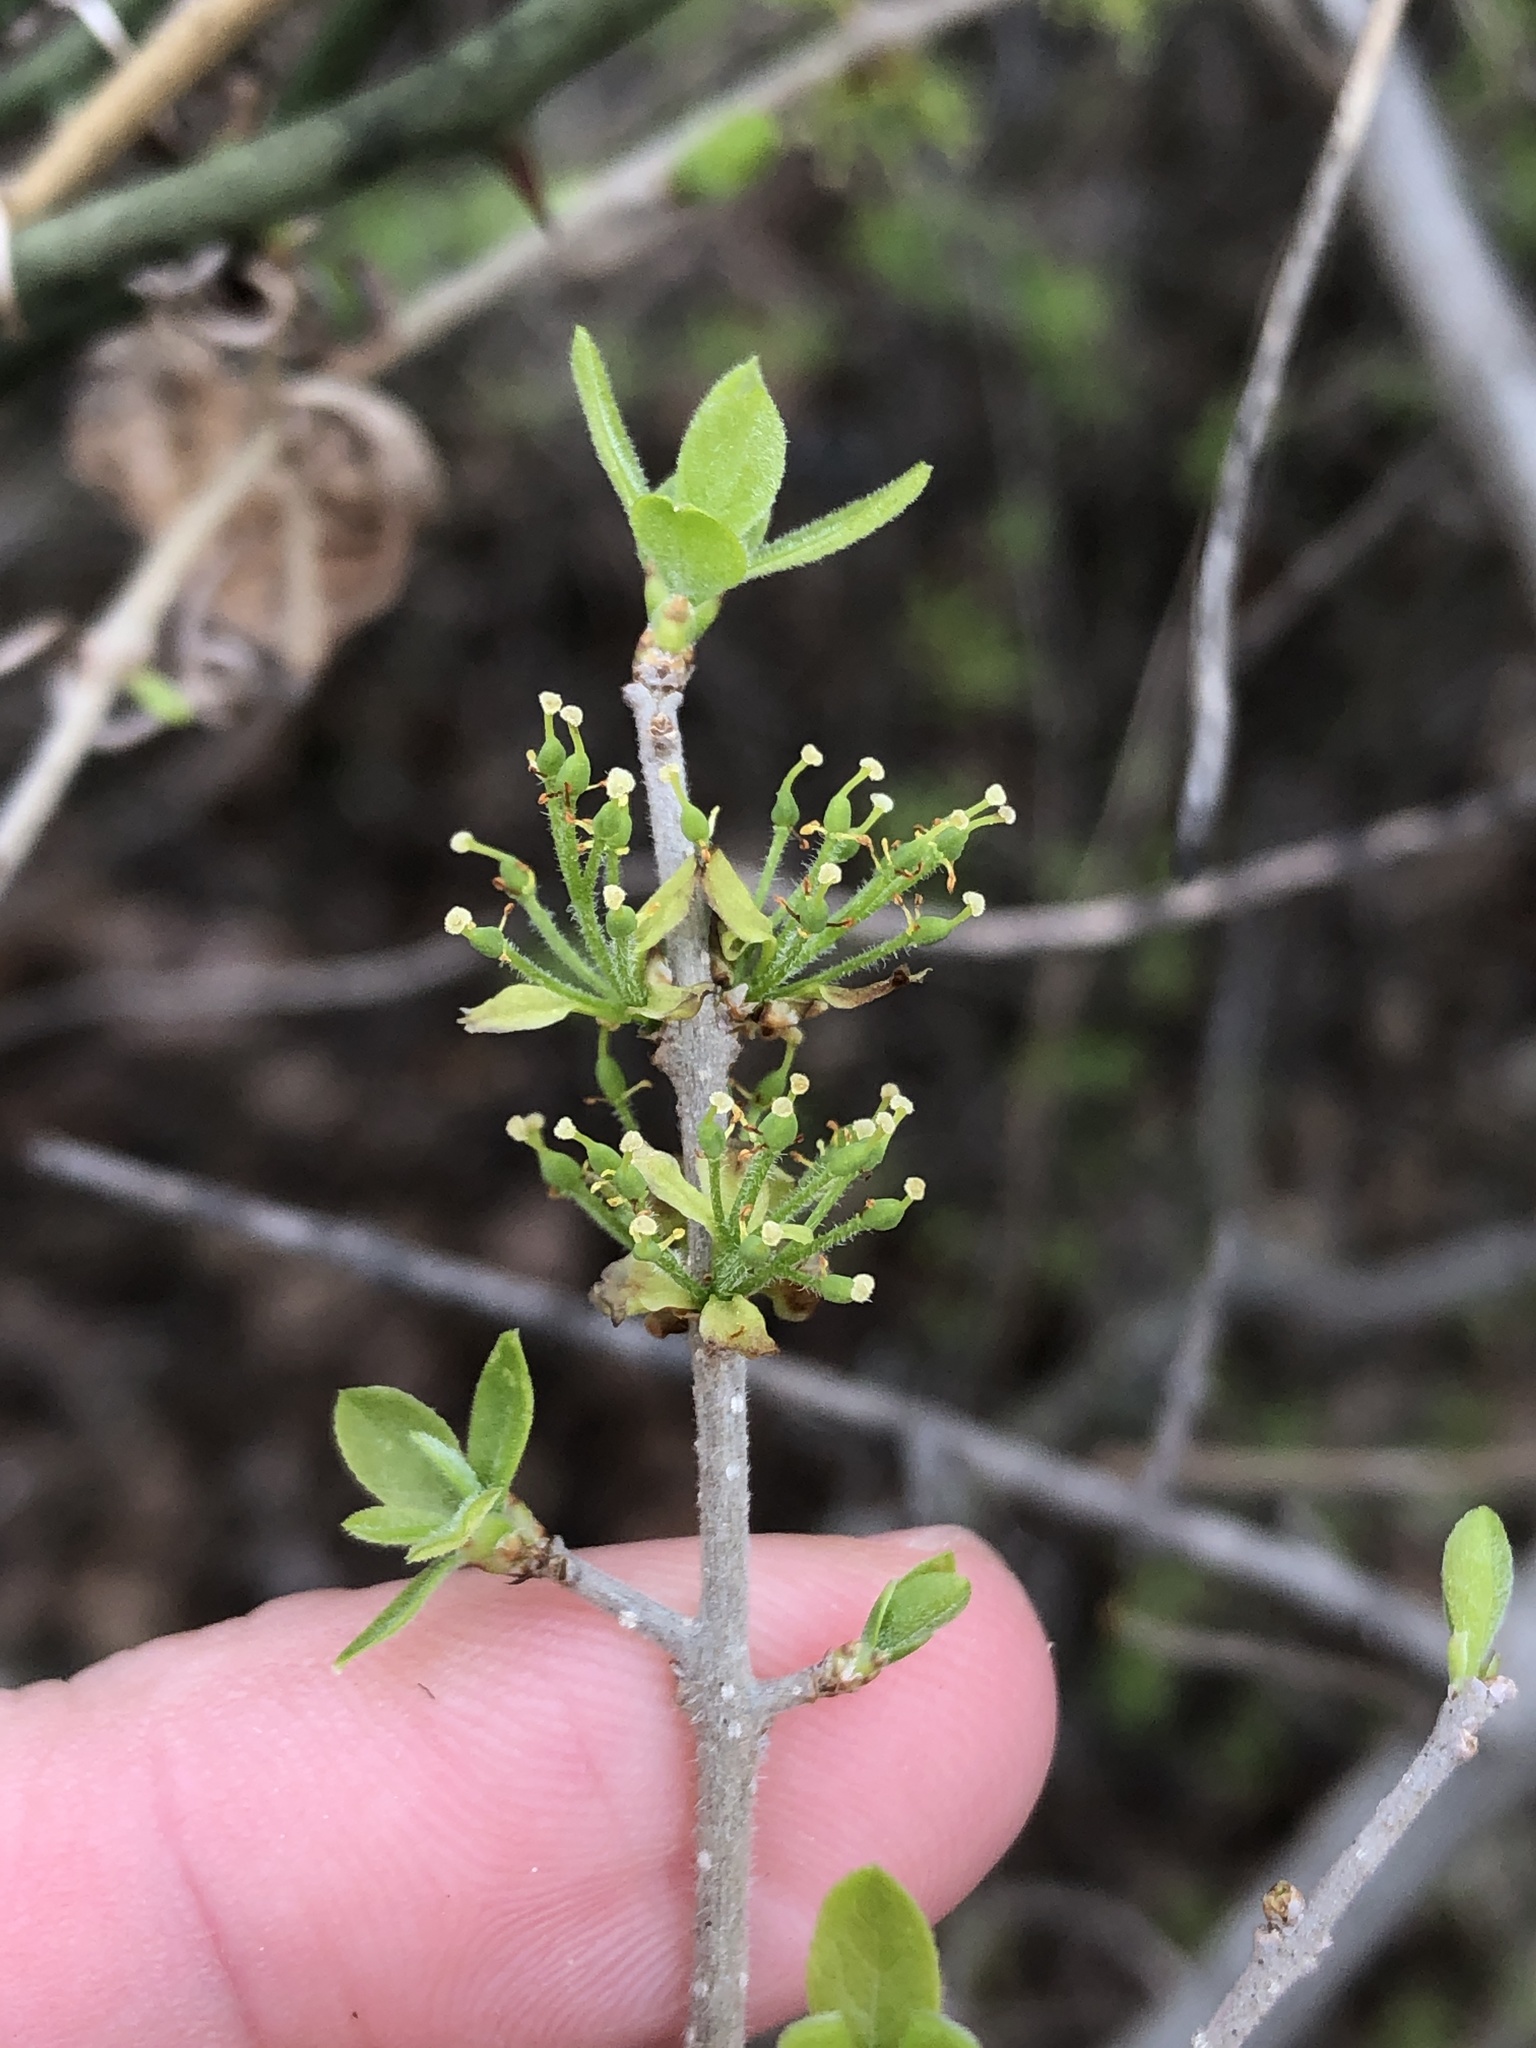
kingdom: Plantae
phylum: Tracheophyta
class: Magnoliopsida
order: Lamiales
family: Oleaceae
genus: Forestiera
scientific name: Forestiera pubescens
